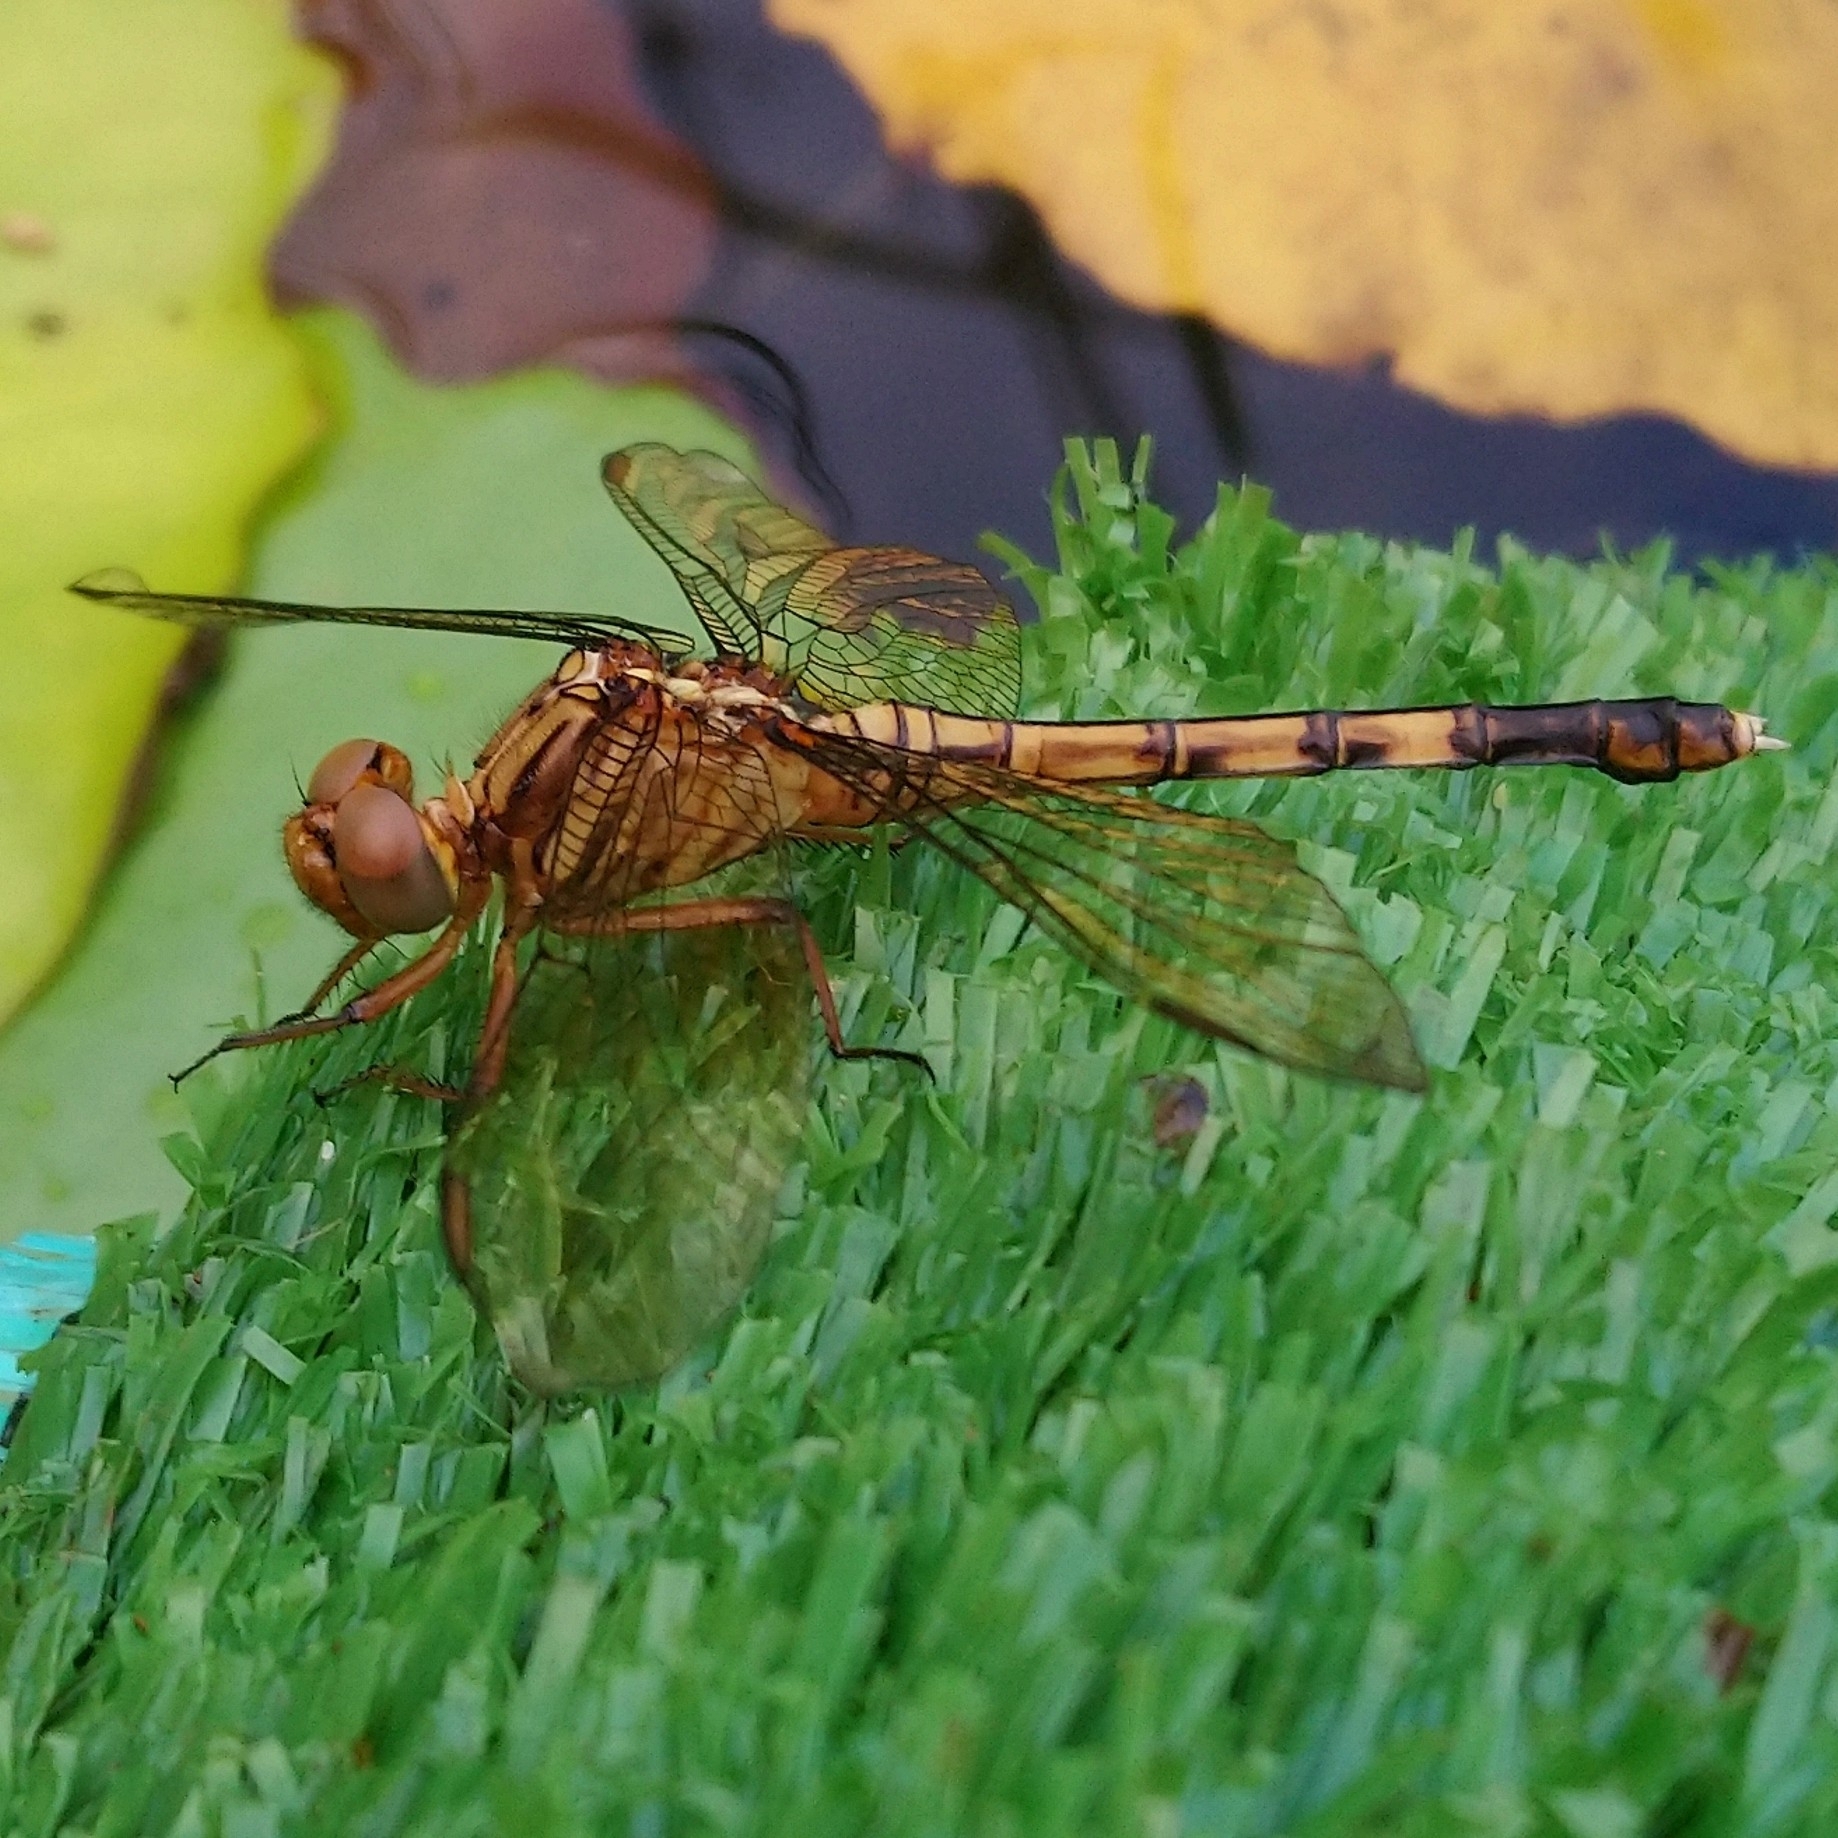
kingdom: Animalia
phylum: Arthropoda
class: Insecta
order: Odonata
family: Libellulidae
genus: Orthetrum
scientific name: Orthetrum julia
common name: Julia skimmer
